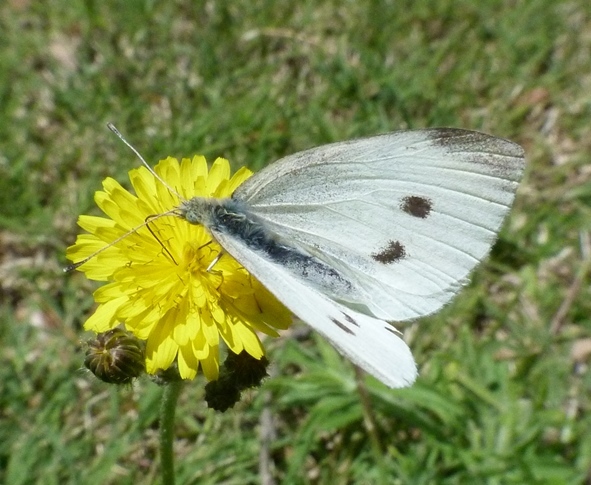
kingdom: Animalia
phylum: Arthropoda
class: Insecta
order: Lepidoptera
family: Pieridae
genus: Pieris
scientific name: Pieris rapae
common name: Small white
